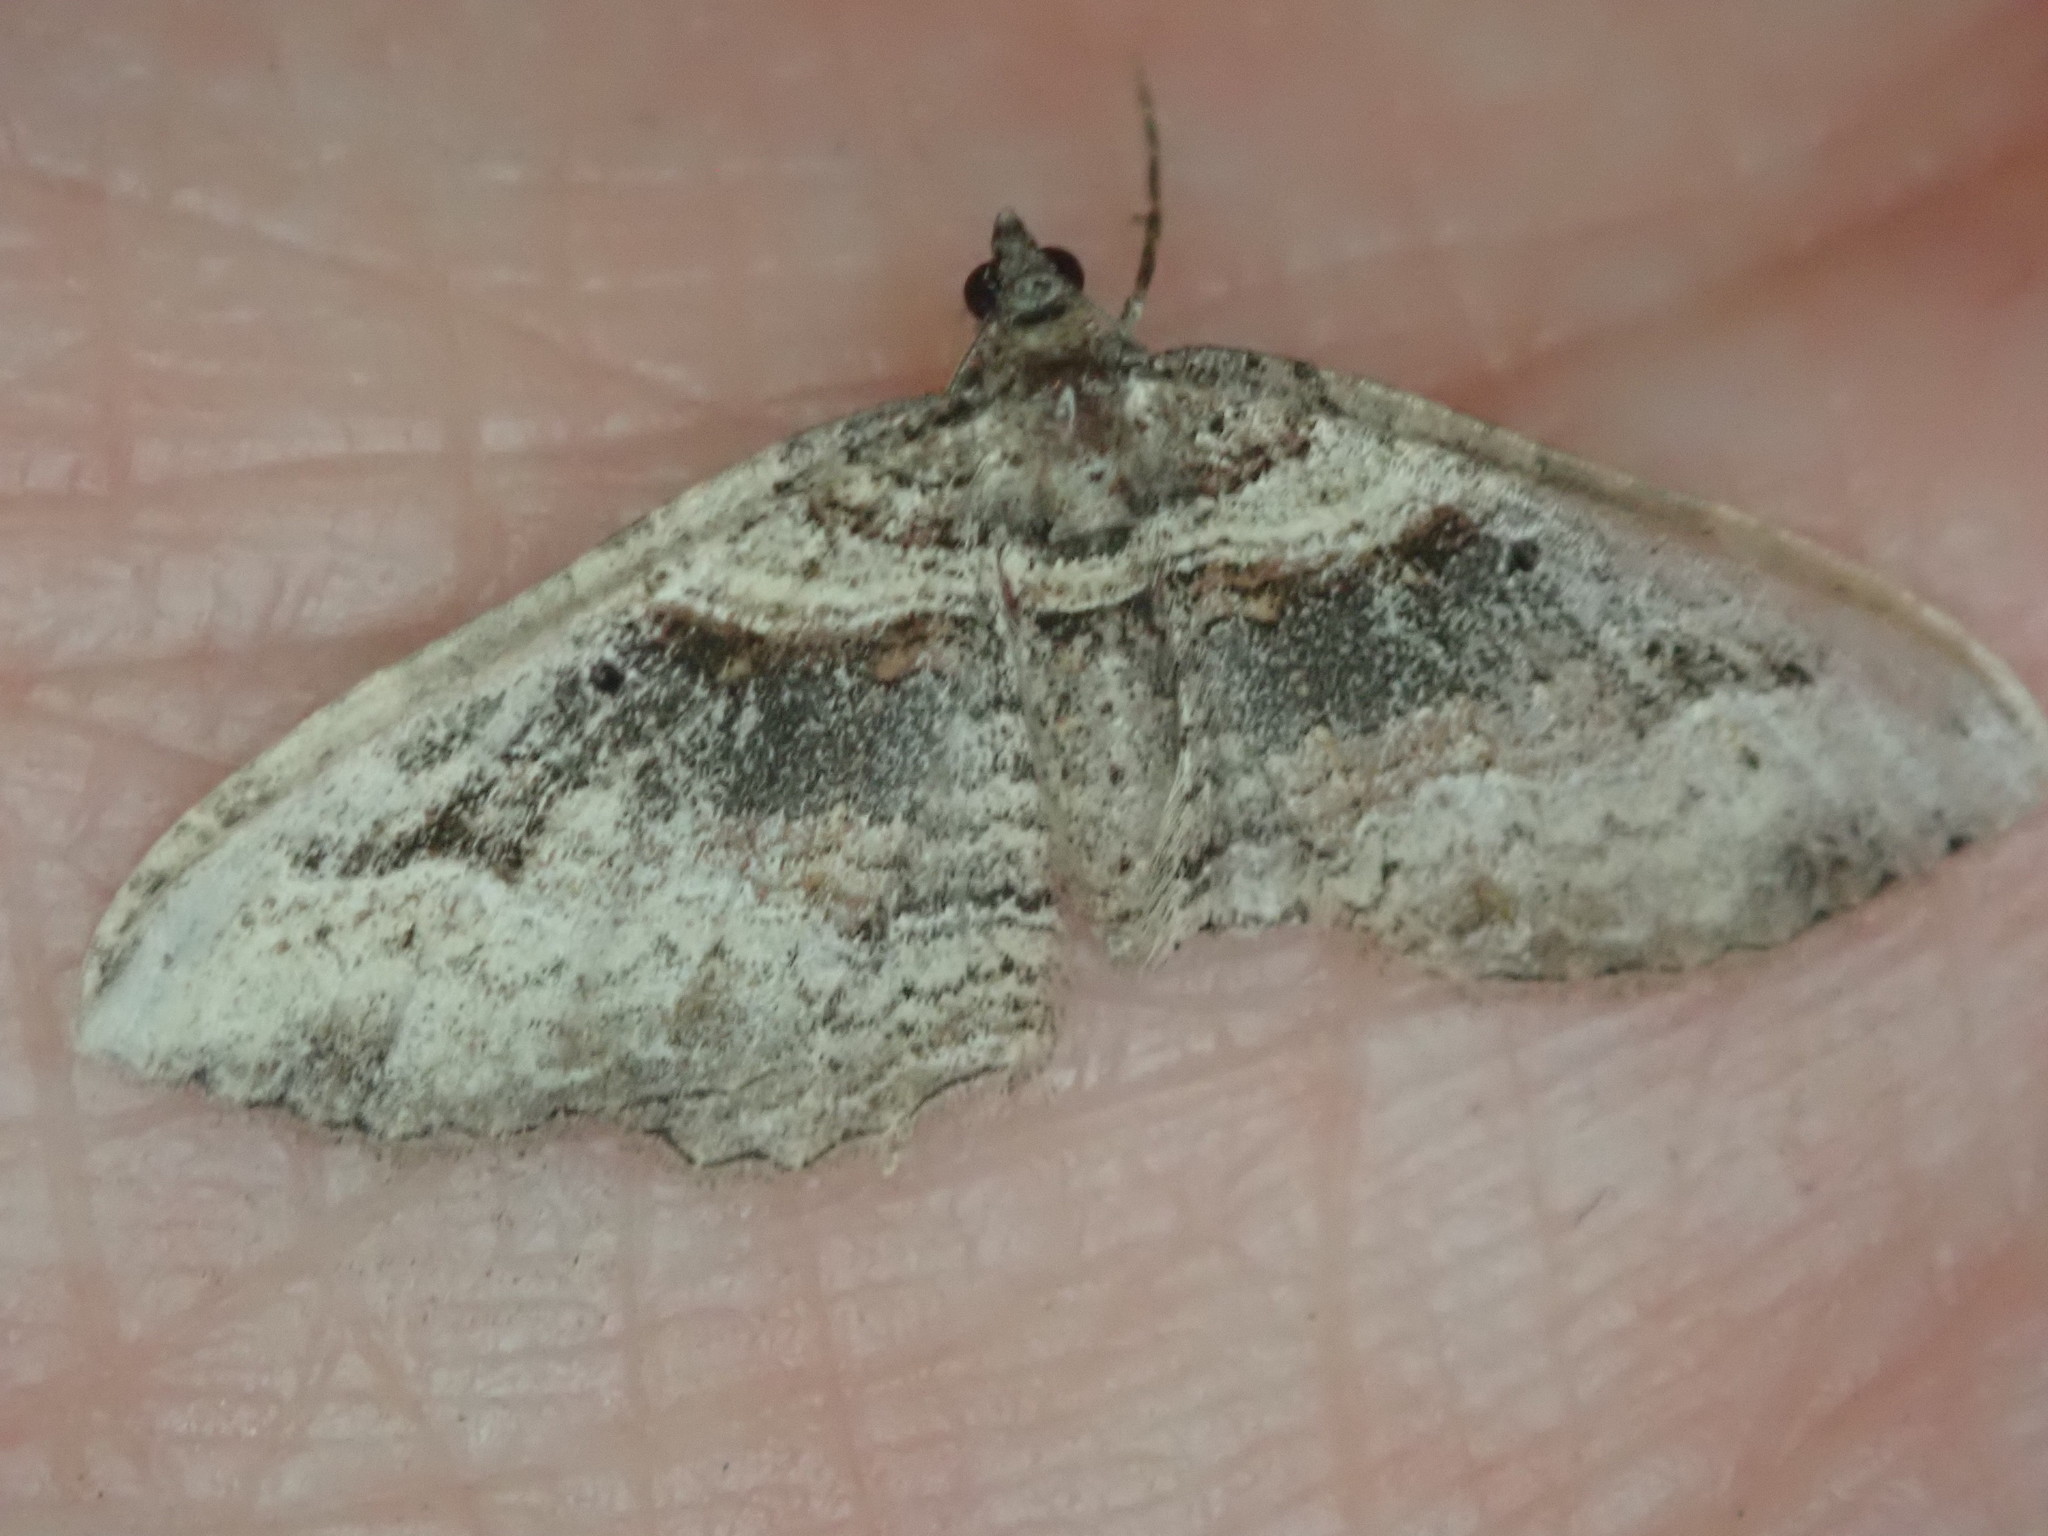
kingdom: Animalia
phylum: Arthropoda
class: Insecta
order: Lepidoptera
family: Geometridae
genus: Costaconvexa
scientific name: Costaconvexa centrostrigaria
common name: Bent-line carpet
